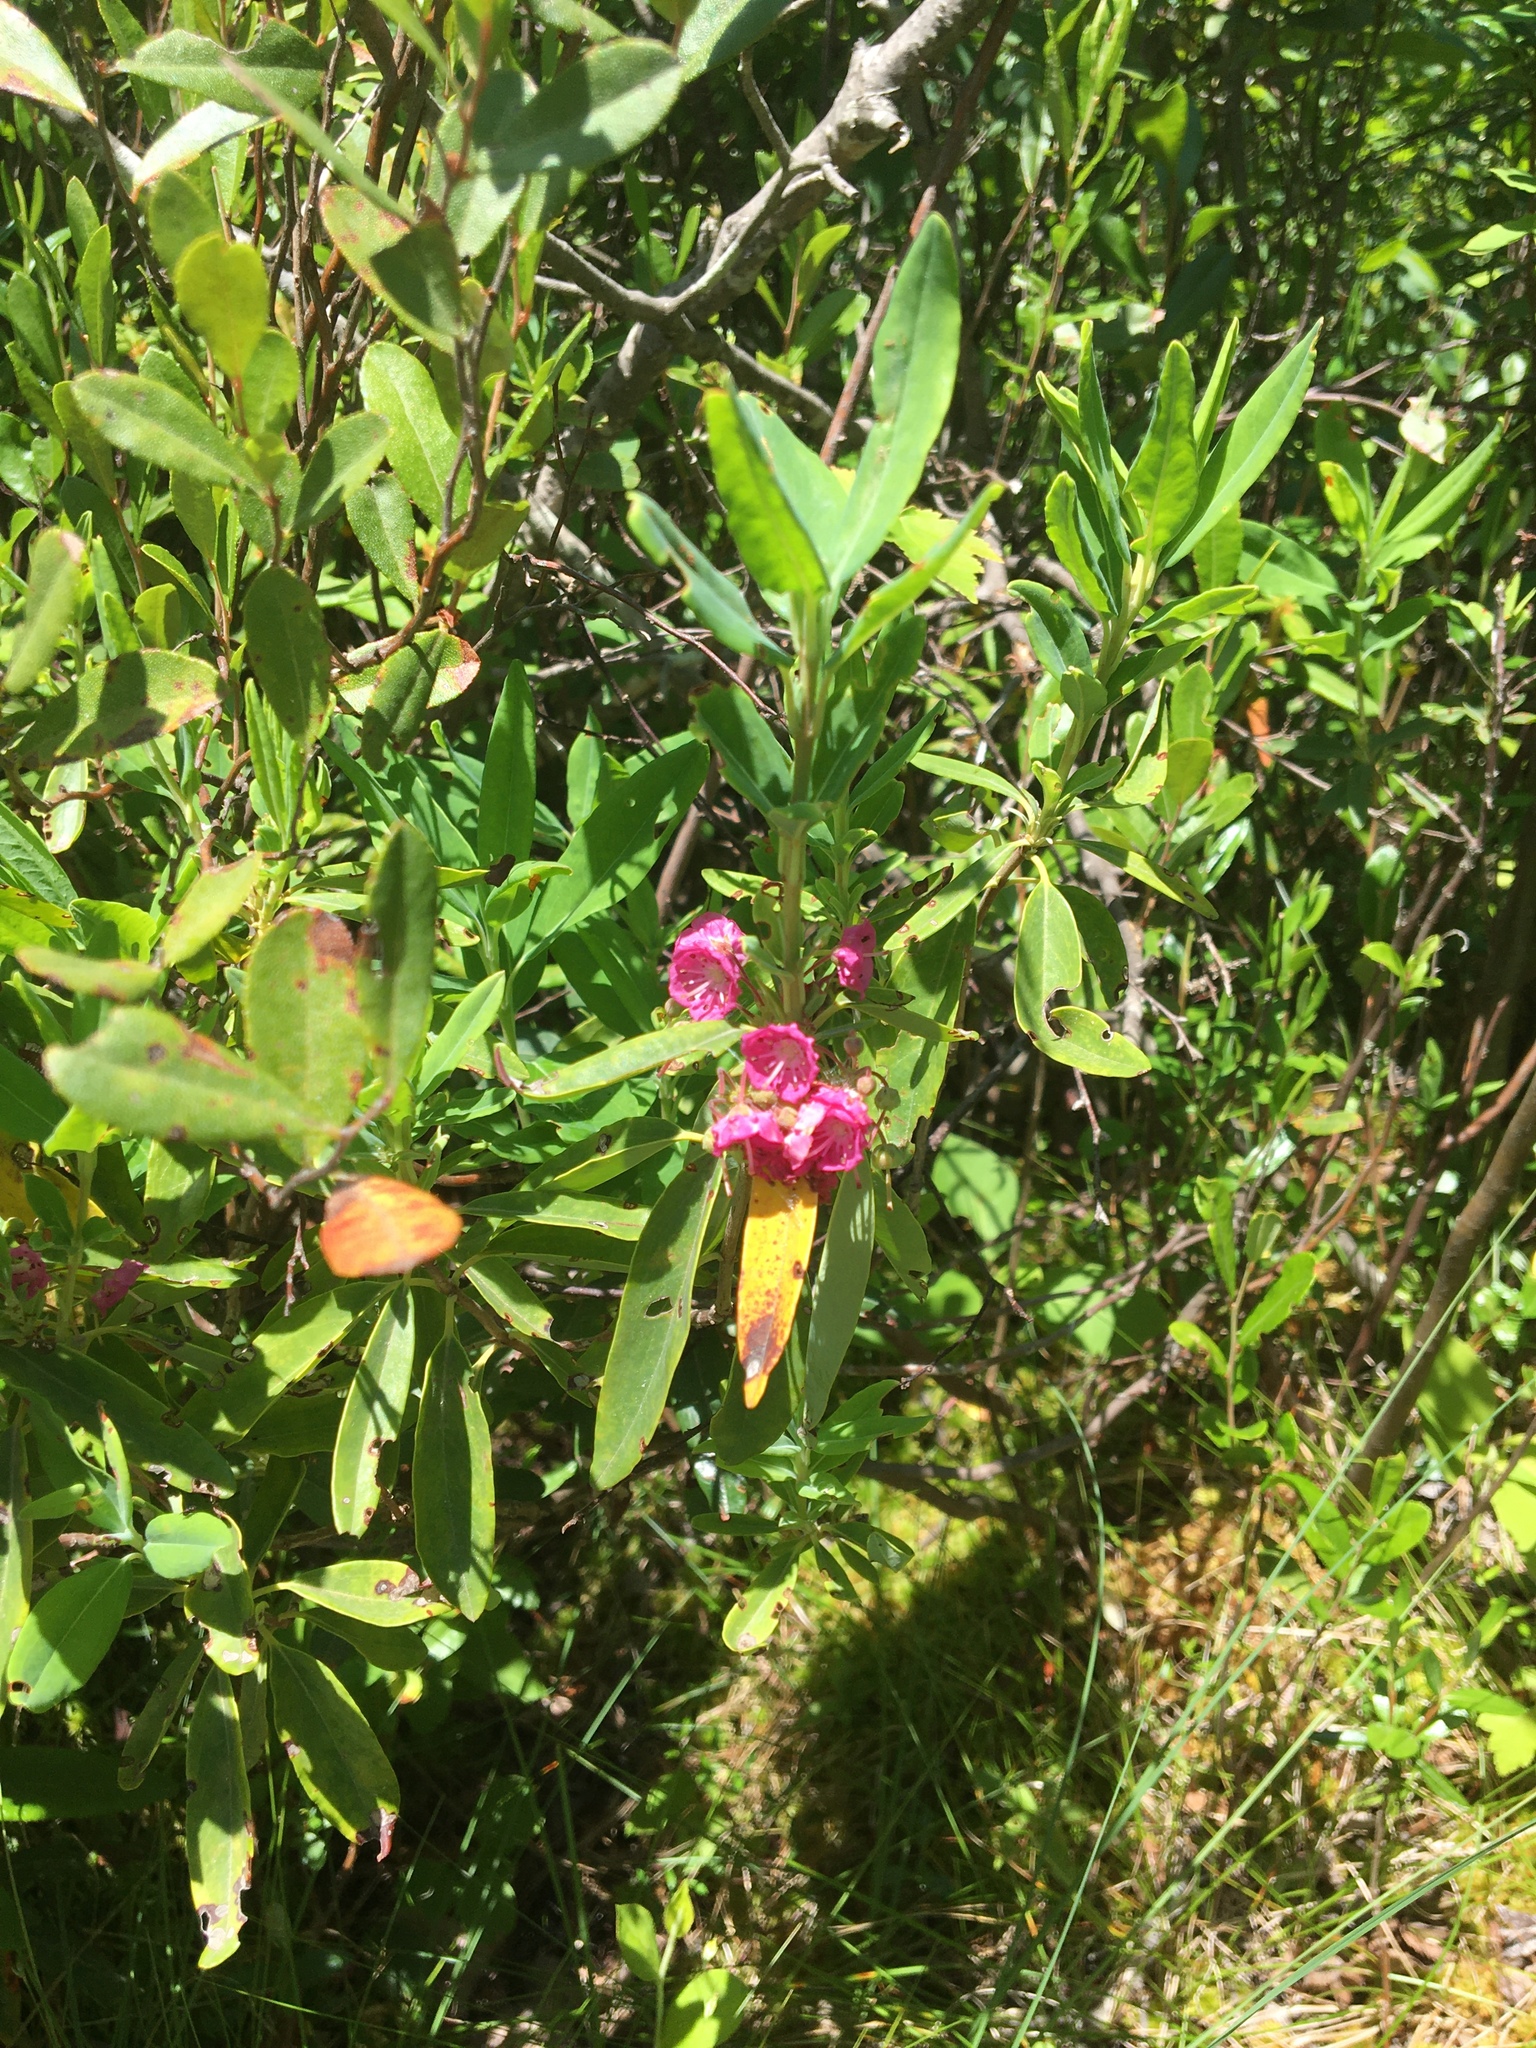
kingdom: Plantae
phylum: Tracheophyta
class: Magnoliopsida
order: Ericales
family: Ericaceae
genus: Kalmia
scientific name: Kalmia angustifolia
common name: Sheep-laurel
